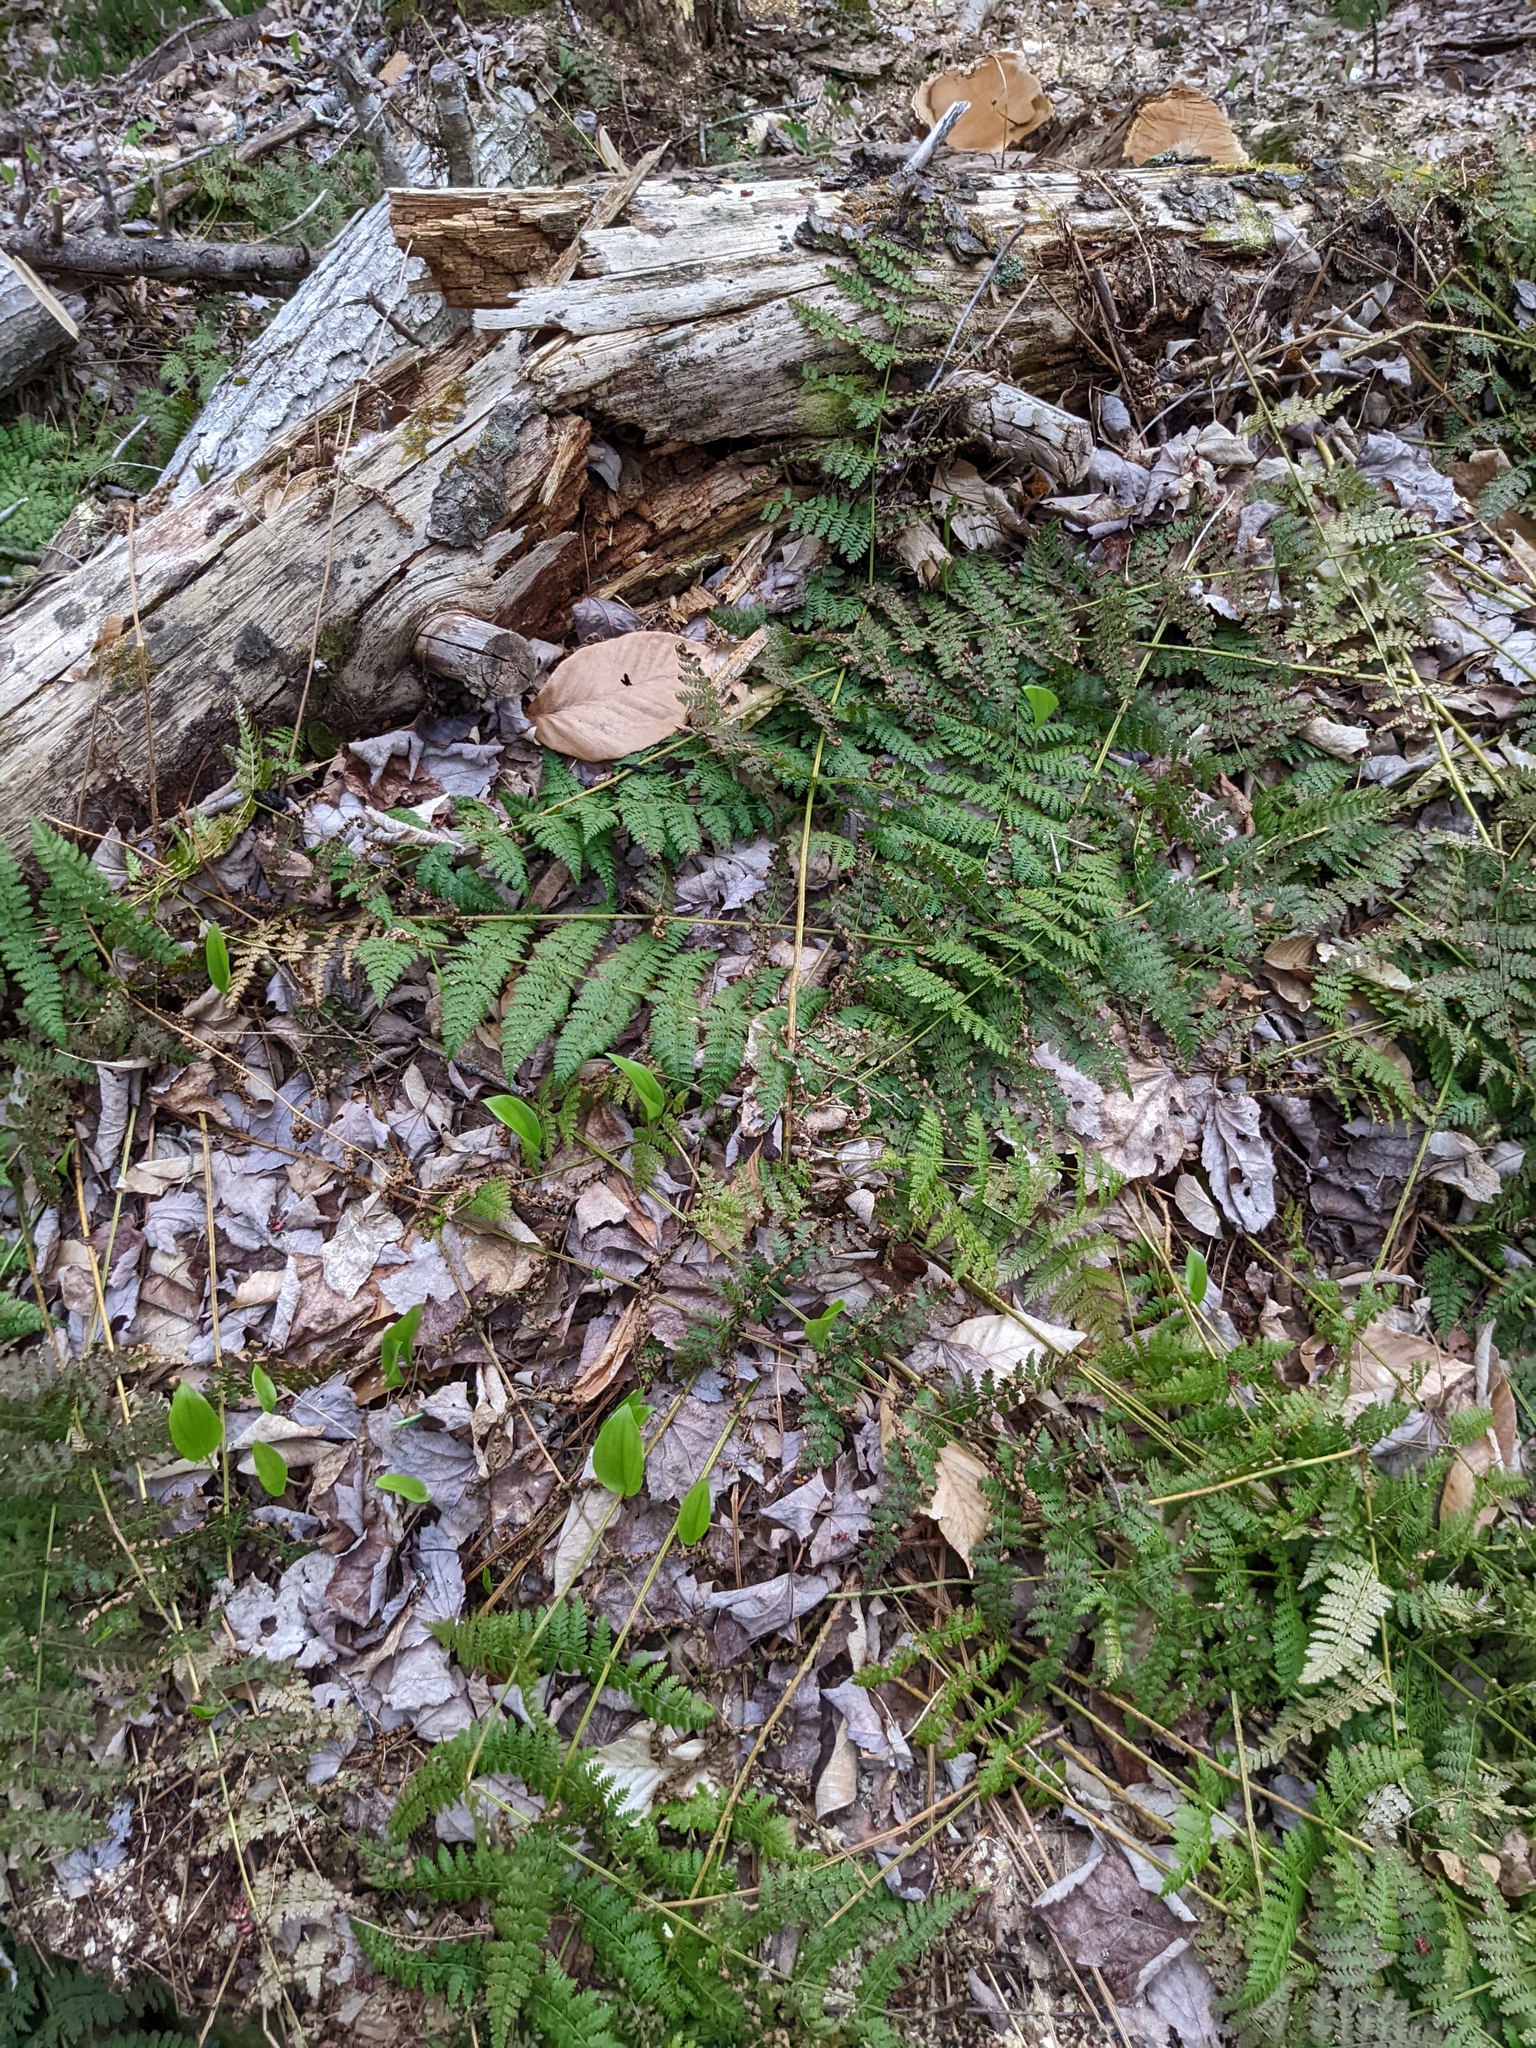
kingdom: Plantae
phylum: Tracheophyta
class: Polypodiopsida
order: Polypodiales
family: Dryopteridaceae
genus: Dryopteris
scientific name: Dryopteris intermedia
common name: Evergreen wood fern
